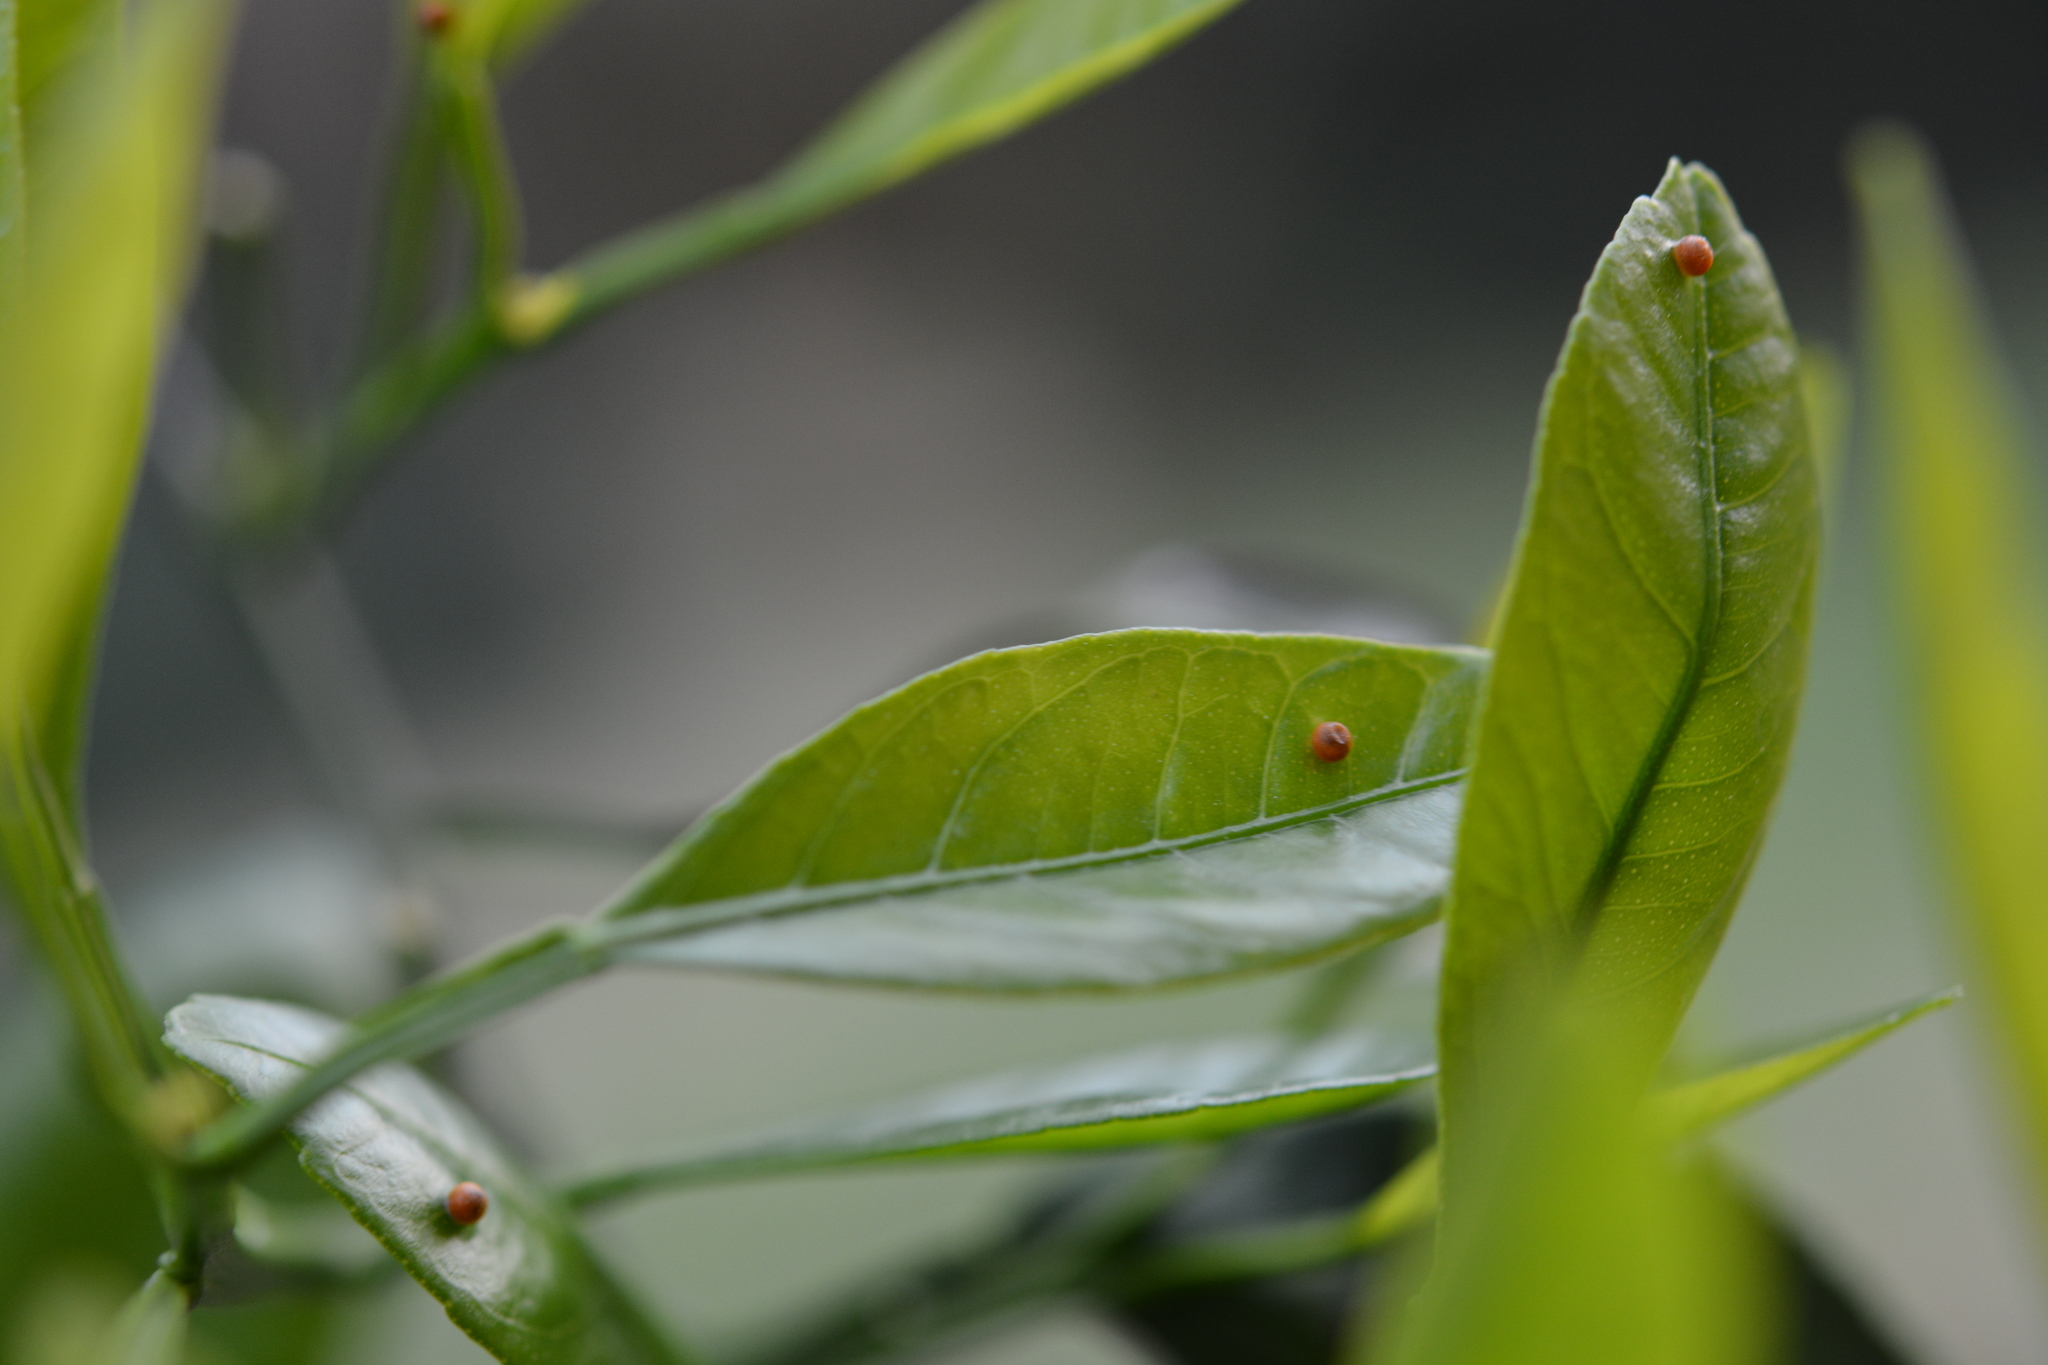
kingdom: Animalia
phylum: Arthropoda
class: Insecta
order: Lepidoptera
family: Papilionidae
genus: Papilio
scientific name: Papilio cresphontes
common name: Giant swallowtail
